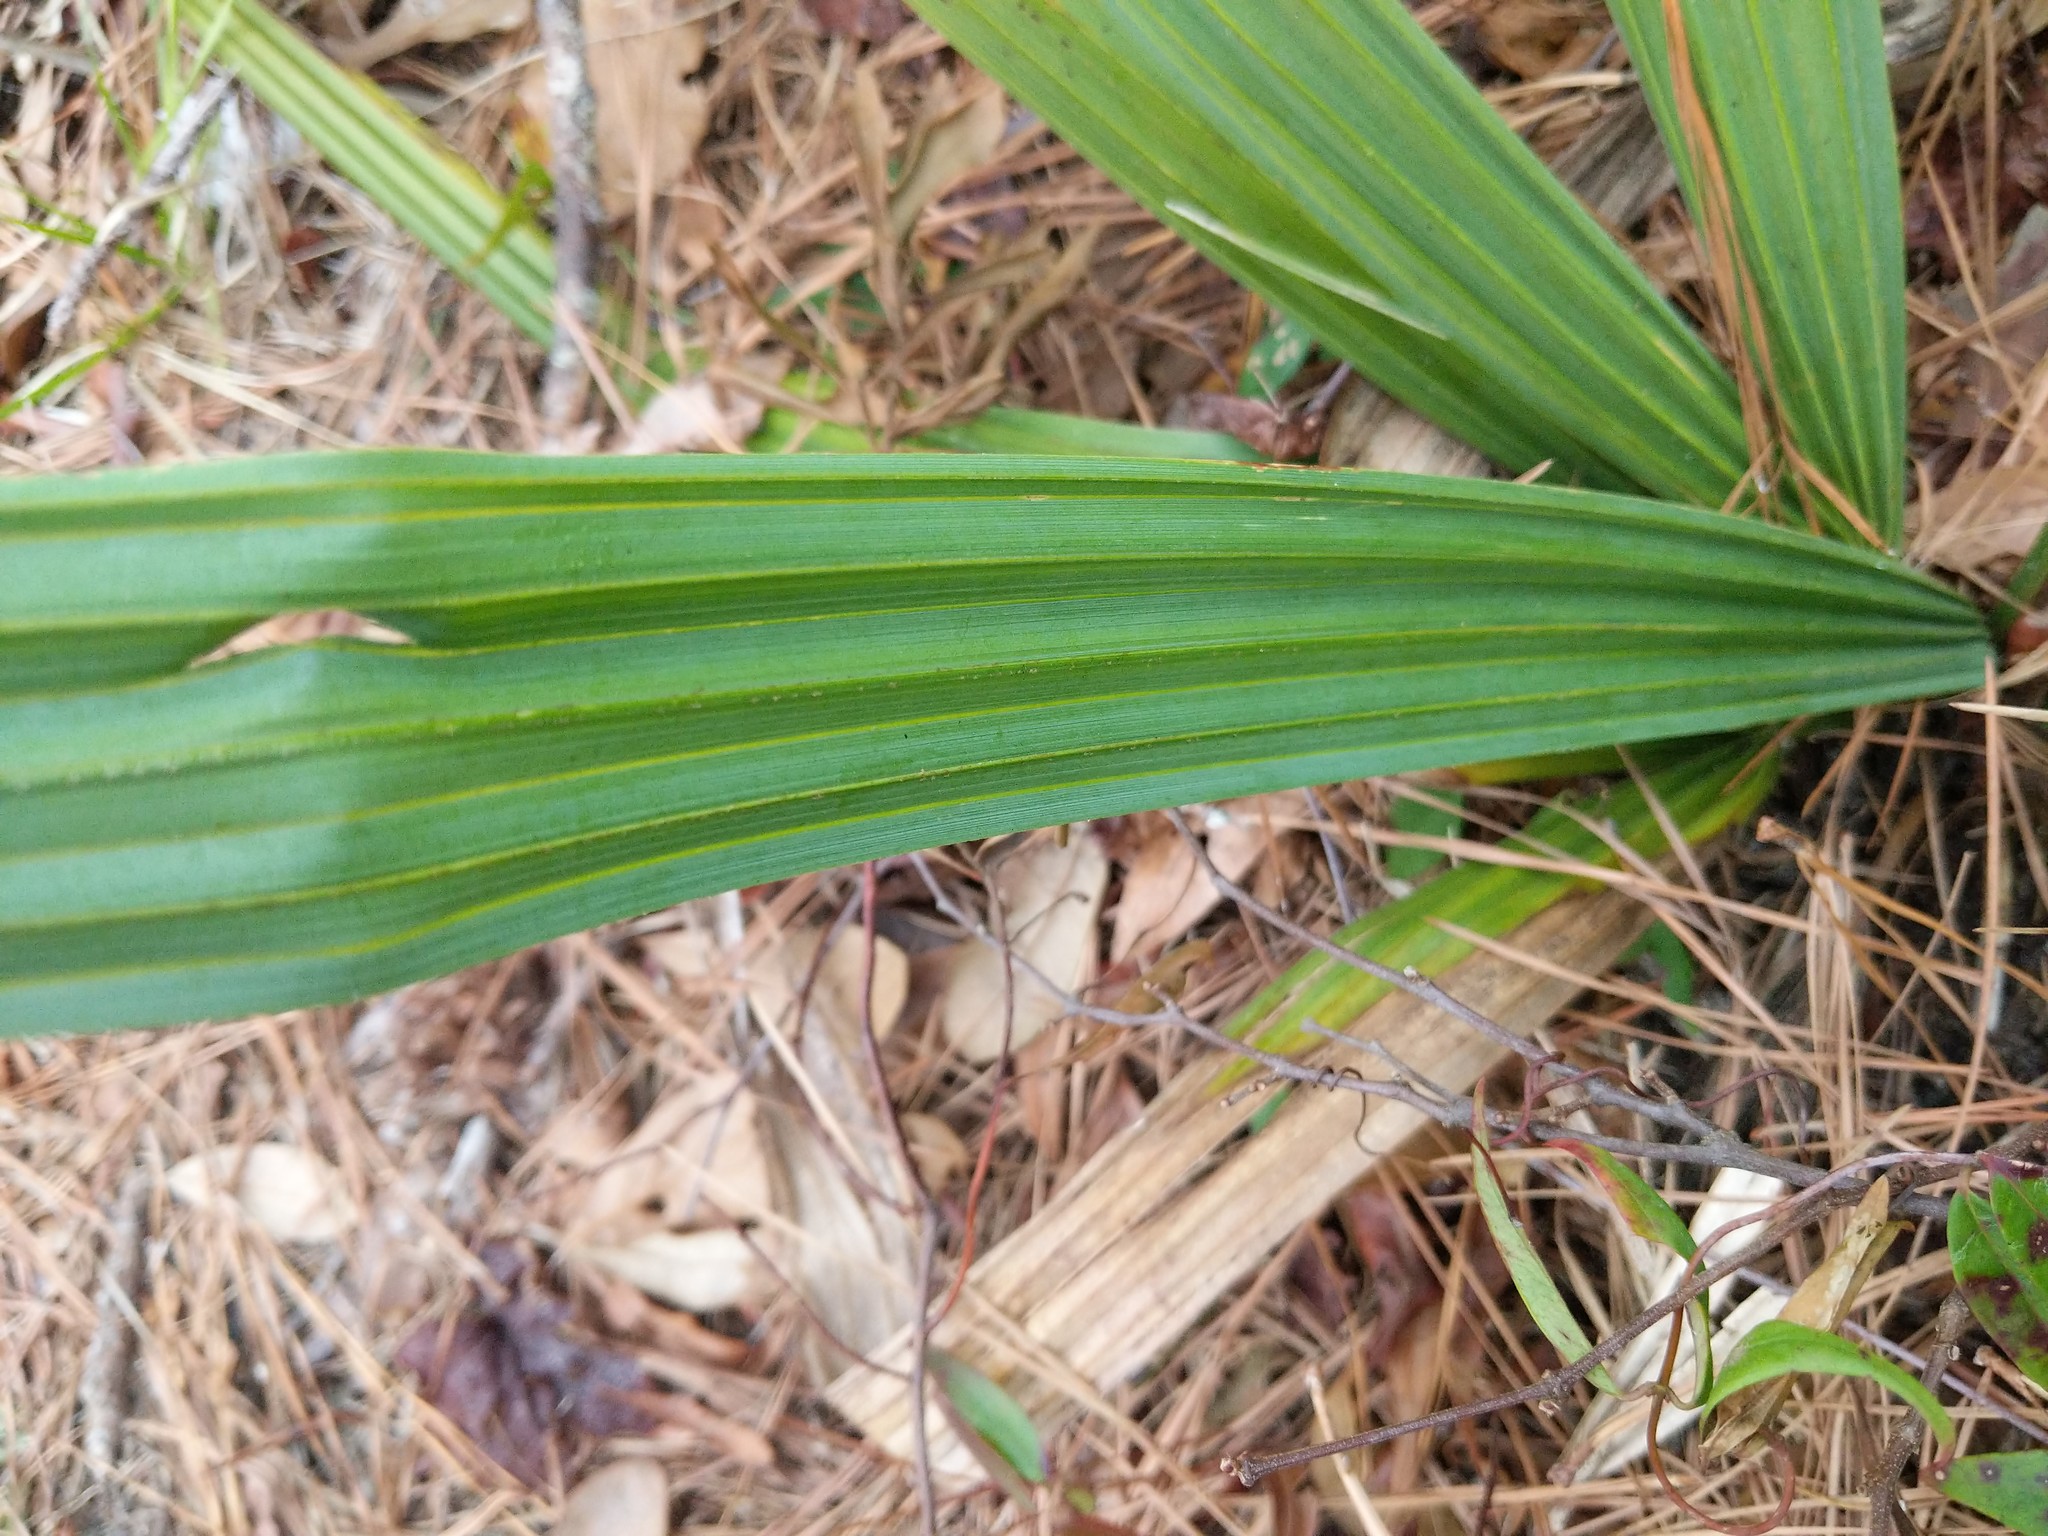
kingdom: Plantae
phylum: Tracheophyta
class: Liliopsida
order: Arecales
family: Arecaceae
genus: Sabal
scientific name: Sabal minor
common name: Dwarf palmetto
